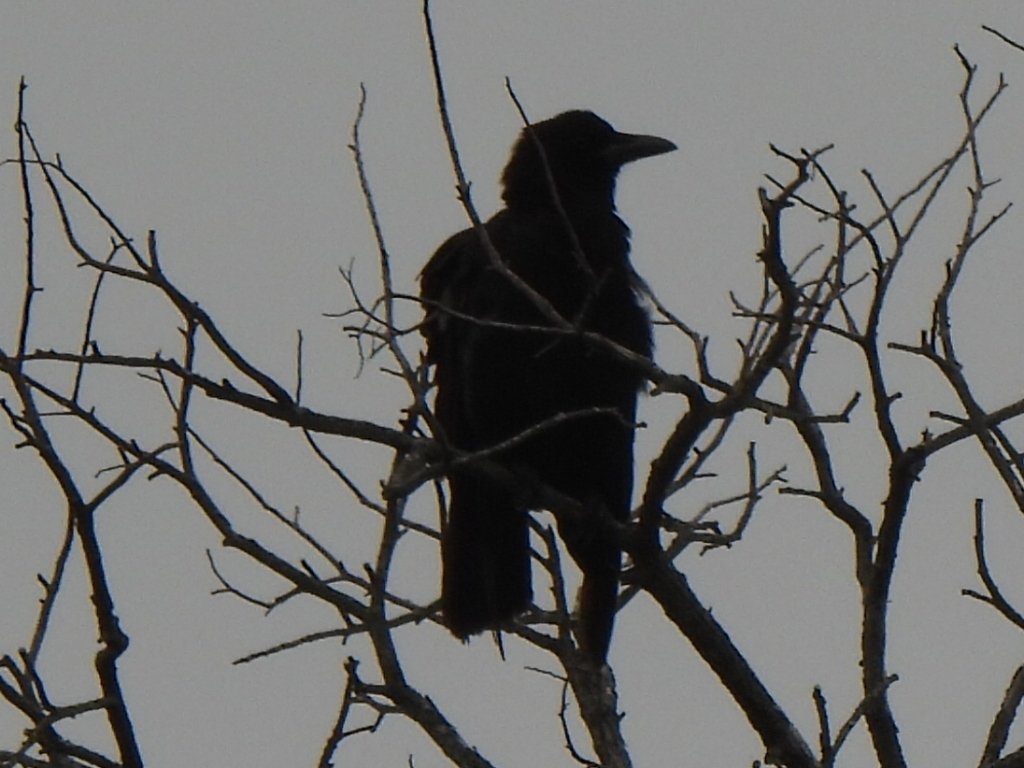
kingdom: Animalia
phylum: Chordata
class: Aves
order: Passeriformes
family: Corvidae
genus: Corvus
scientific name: Corvus brachyrhynchos
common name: American crow
